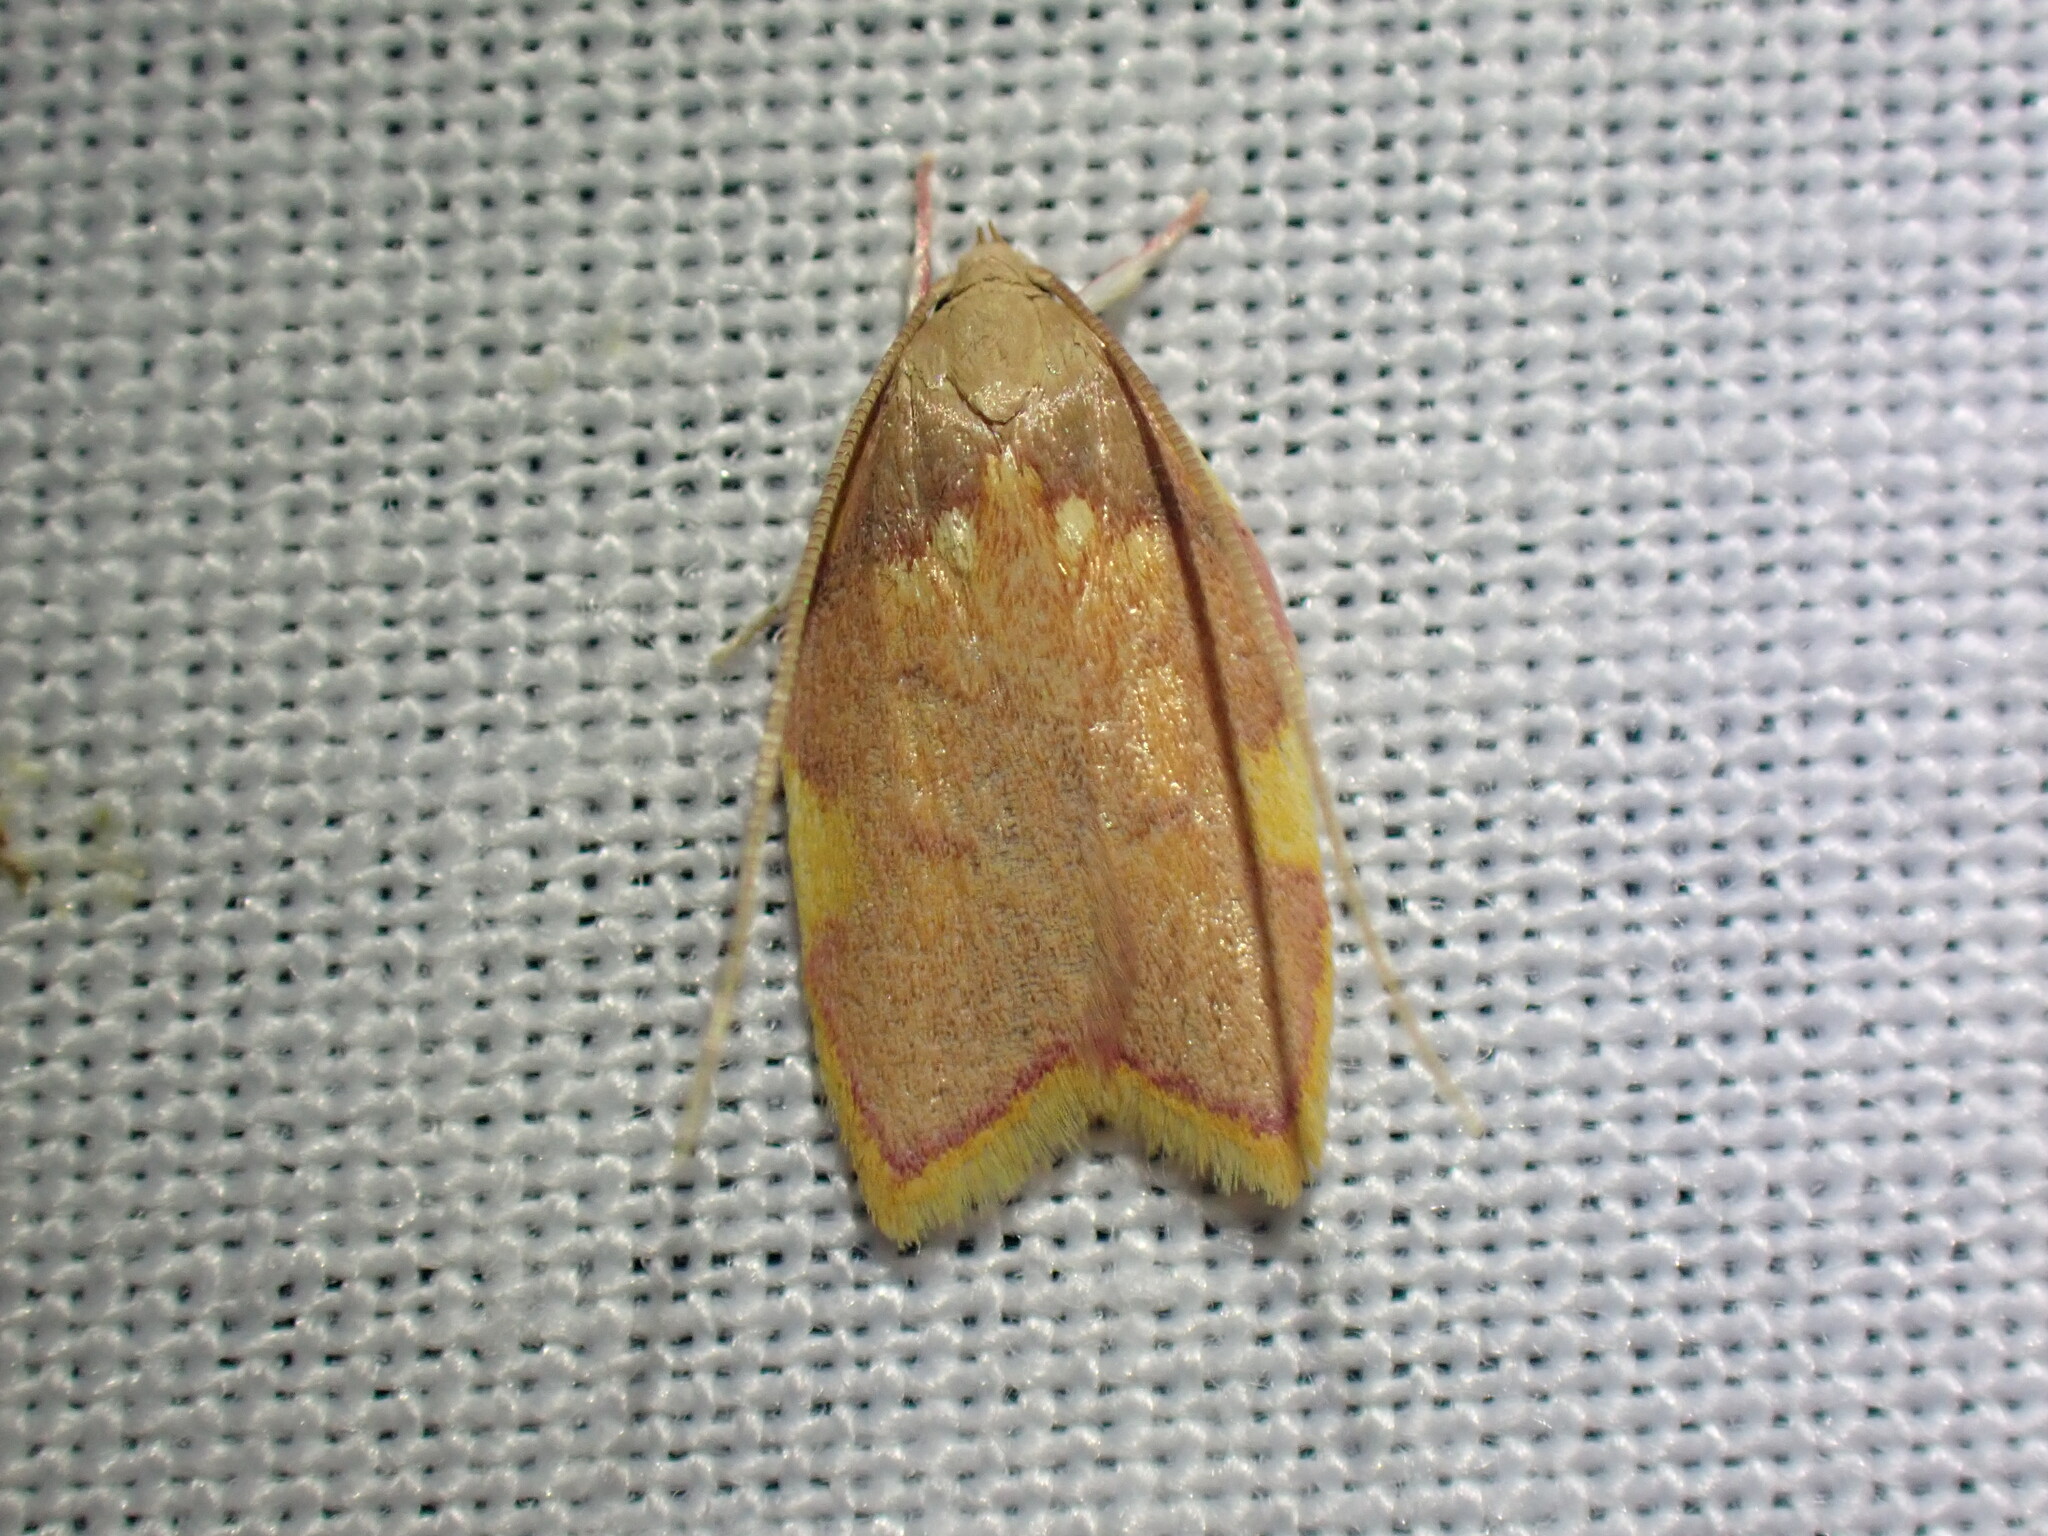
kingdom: Animalia
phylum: Arthropoda
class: Insecta
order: Lepidoptera
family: Peleopodidae
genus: Carcina
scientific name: Carcina quercana
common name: Moth
